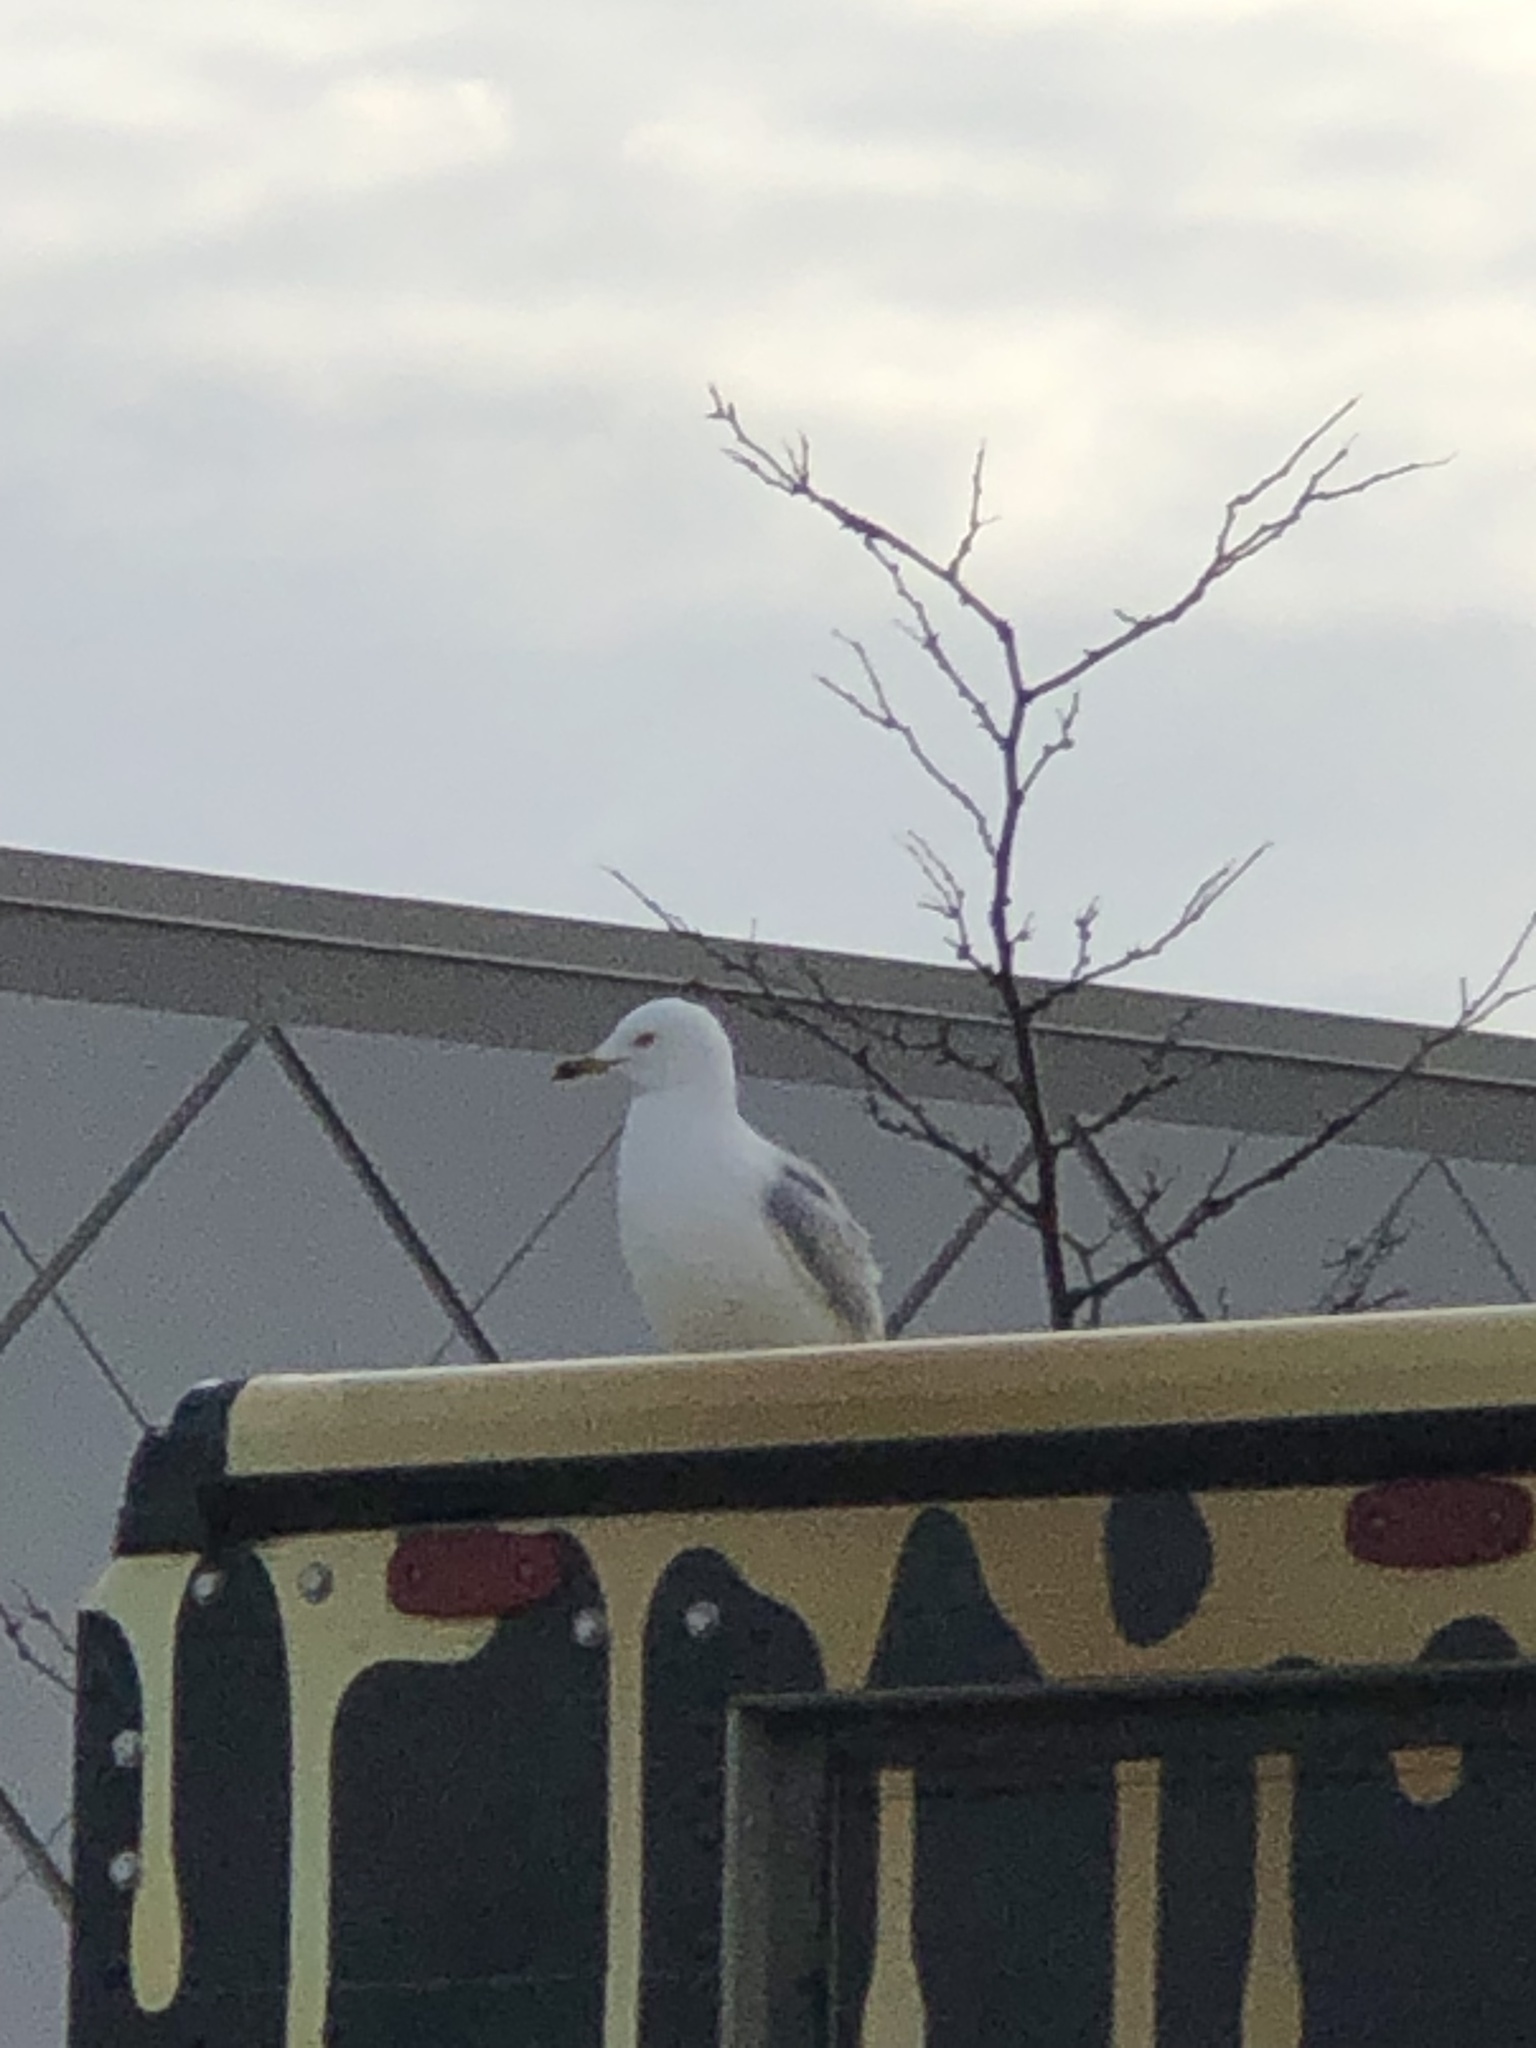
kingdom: Animalia
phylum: Chordata
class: Aves
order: Charadriiformes
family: Laridae
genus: Larus
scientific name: Larus delawarensis
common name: Ring-billed gull
